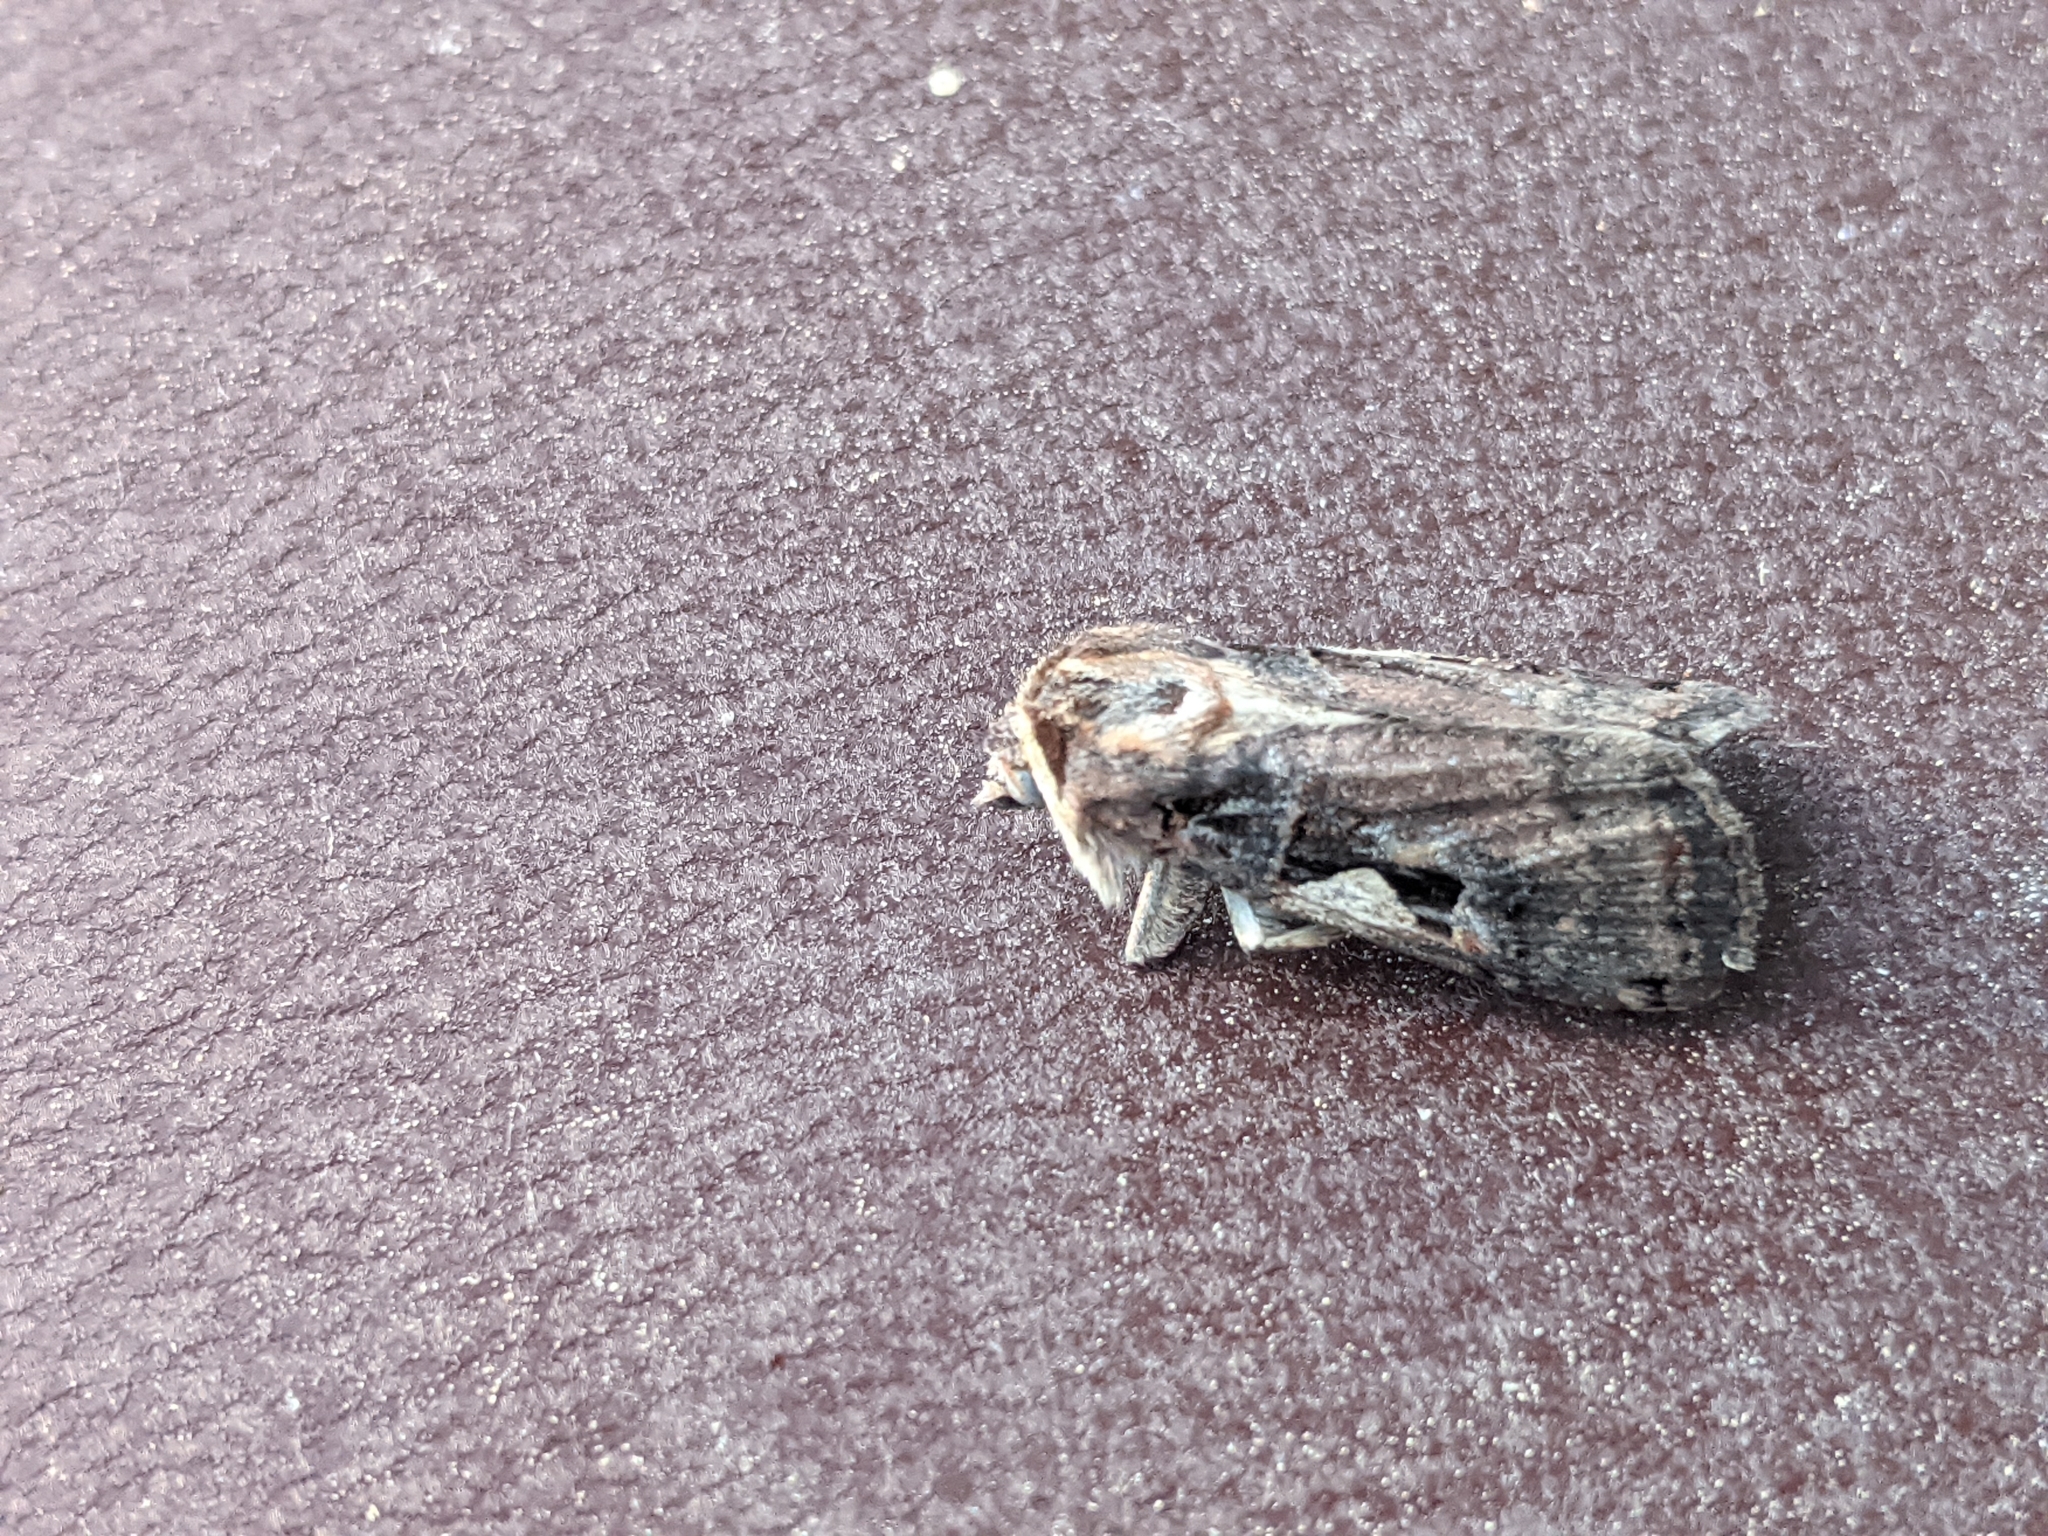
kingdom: Animalia
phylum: Arthropoda
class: Insecta
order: Lepidoptera
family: Noctuidae
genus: Xestia
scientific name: Xestia c-nigrum
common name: Setaceous hebrew character
